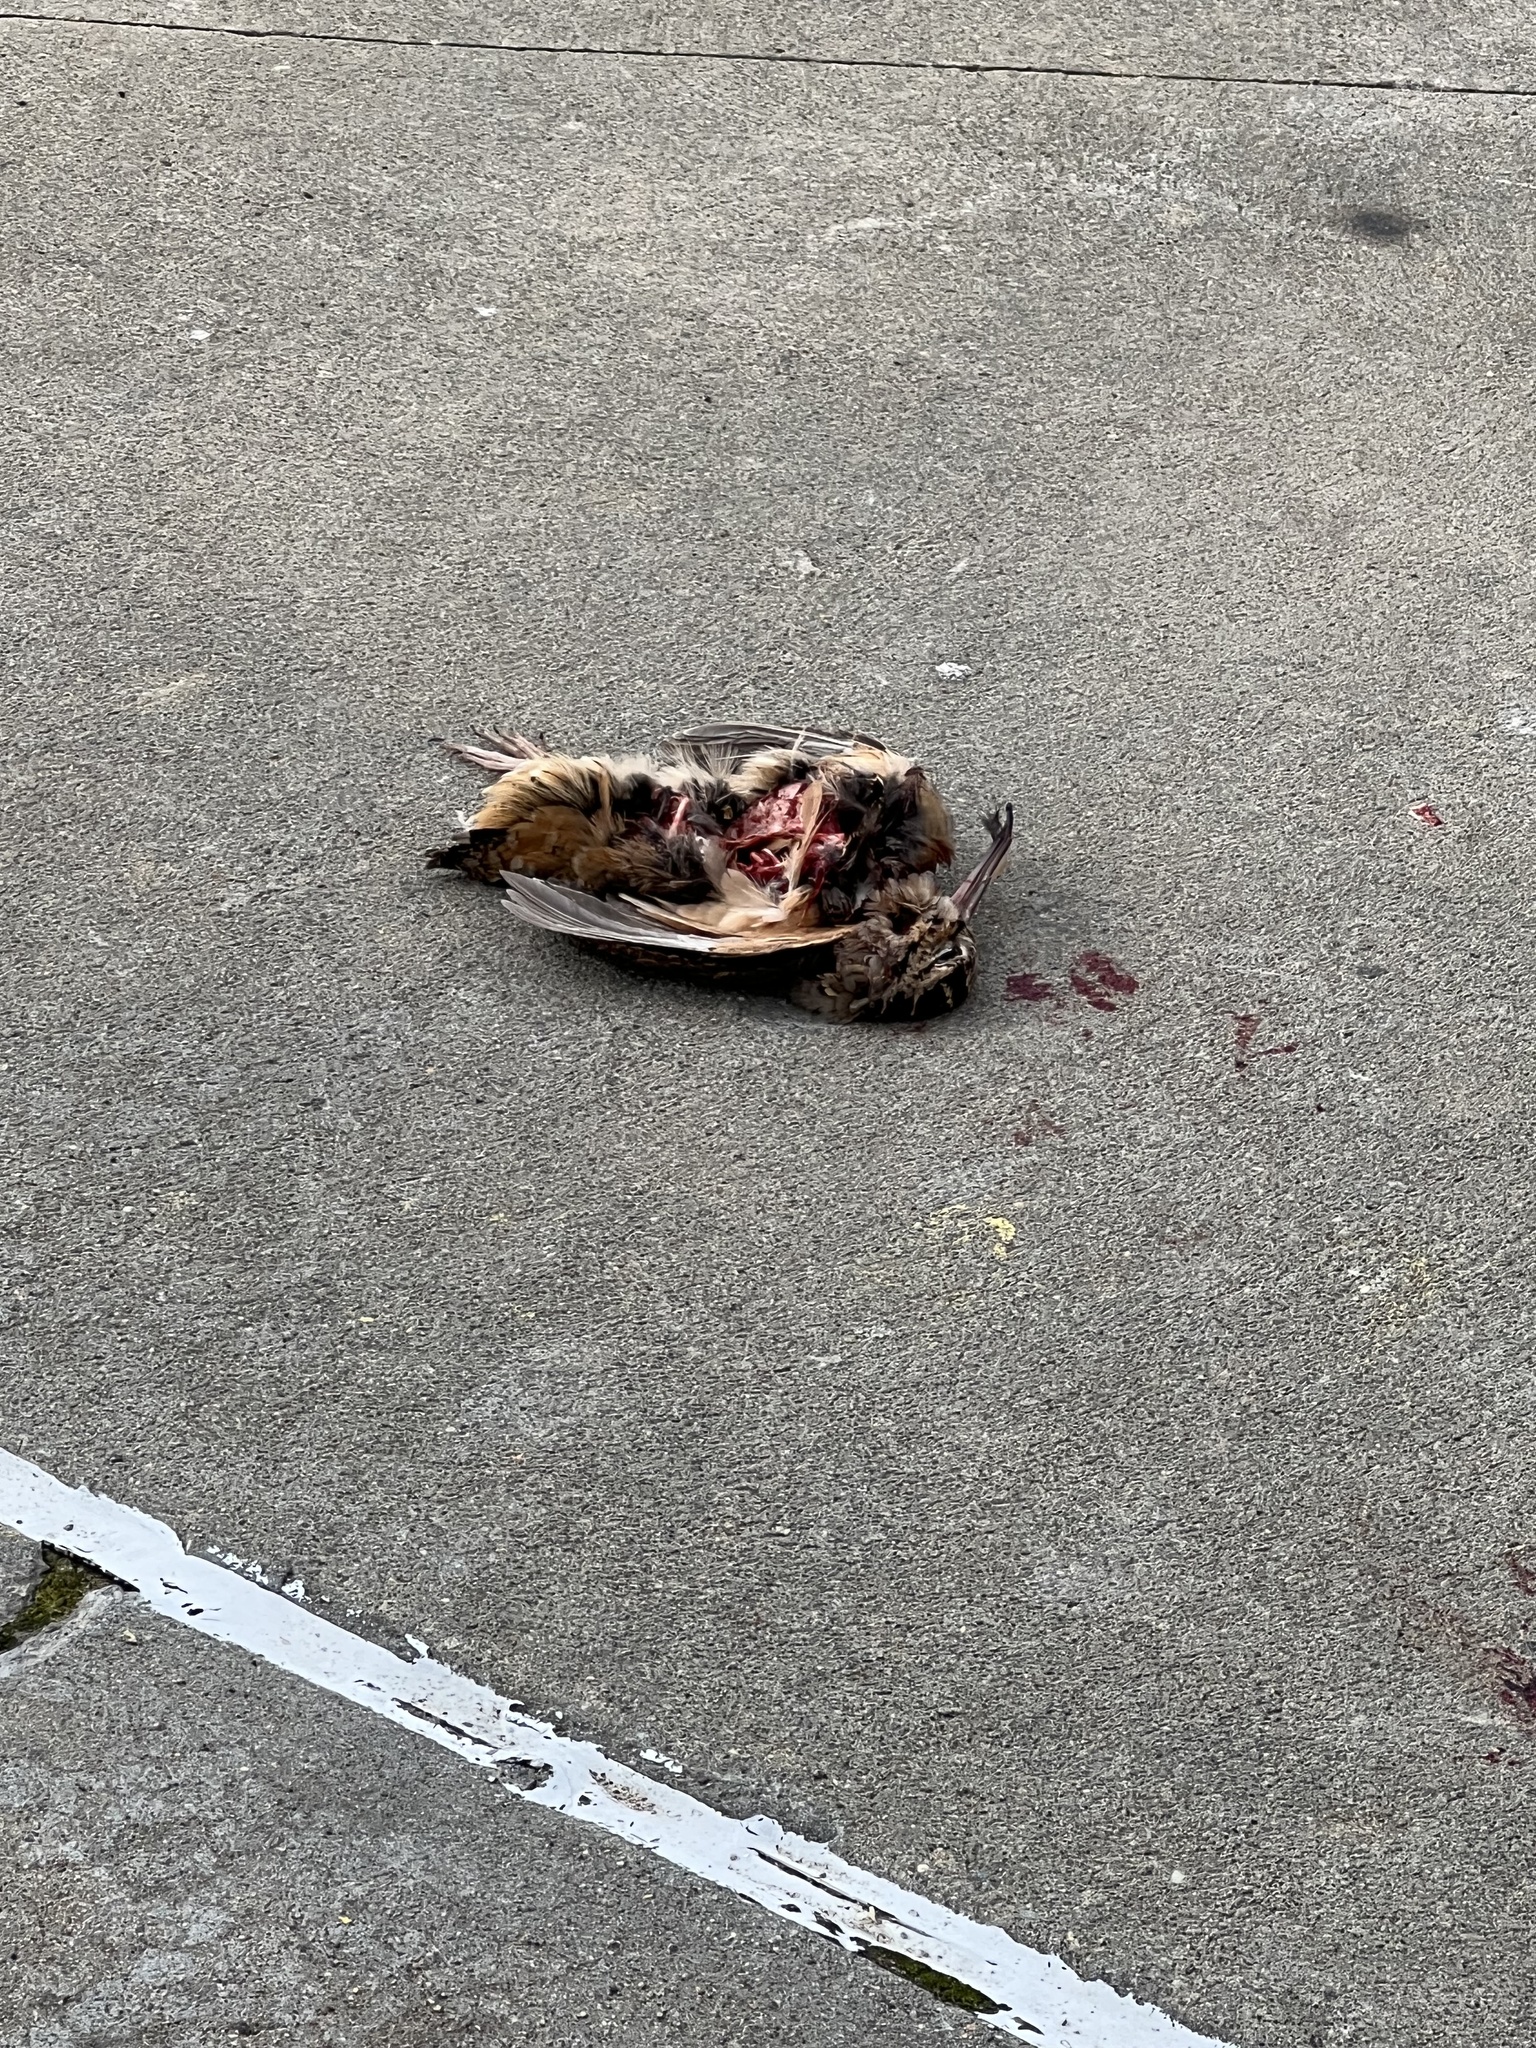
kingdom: Animalia
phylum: Chordata
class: Aves
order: Charadriiformes
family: Scolopacidae
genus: Scolopax
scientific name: Scolopax minor
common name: American woodcock
